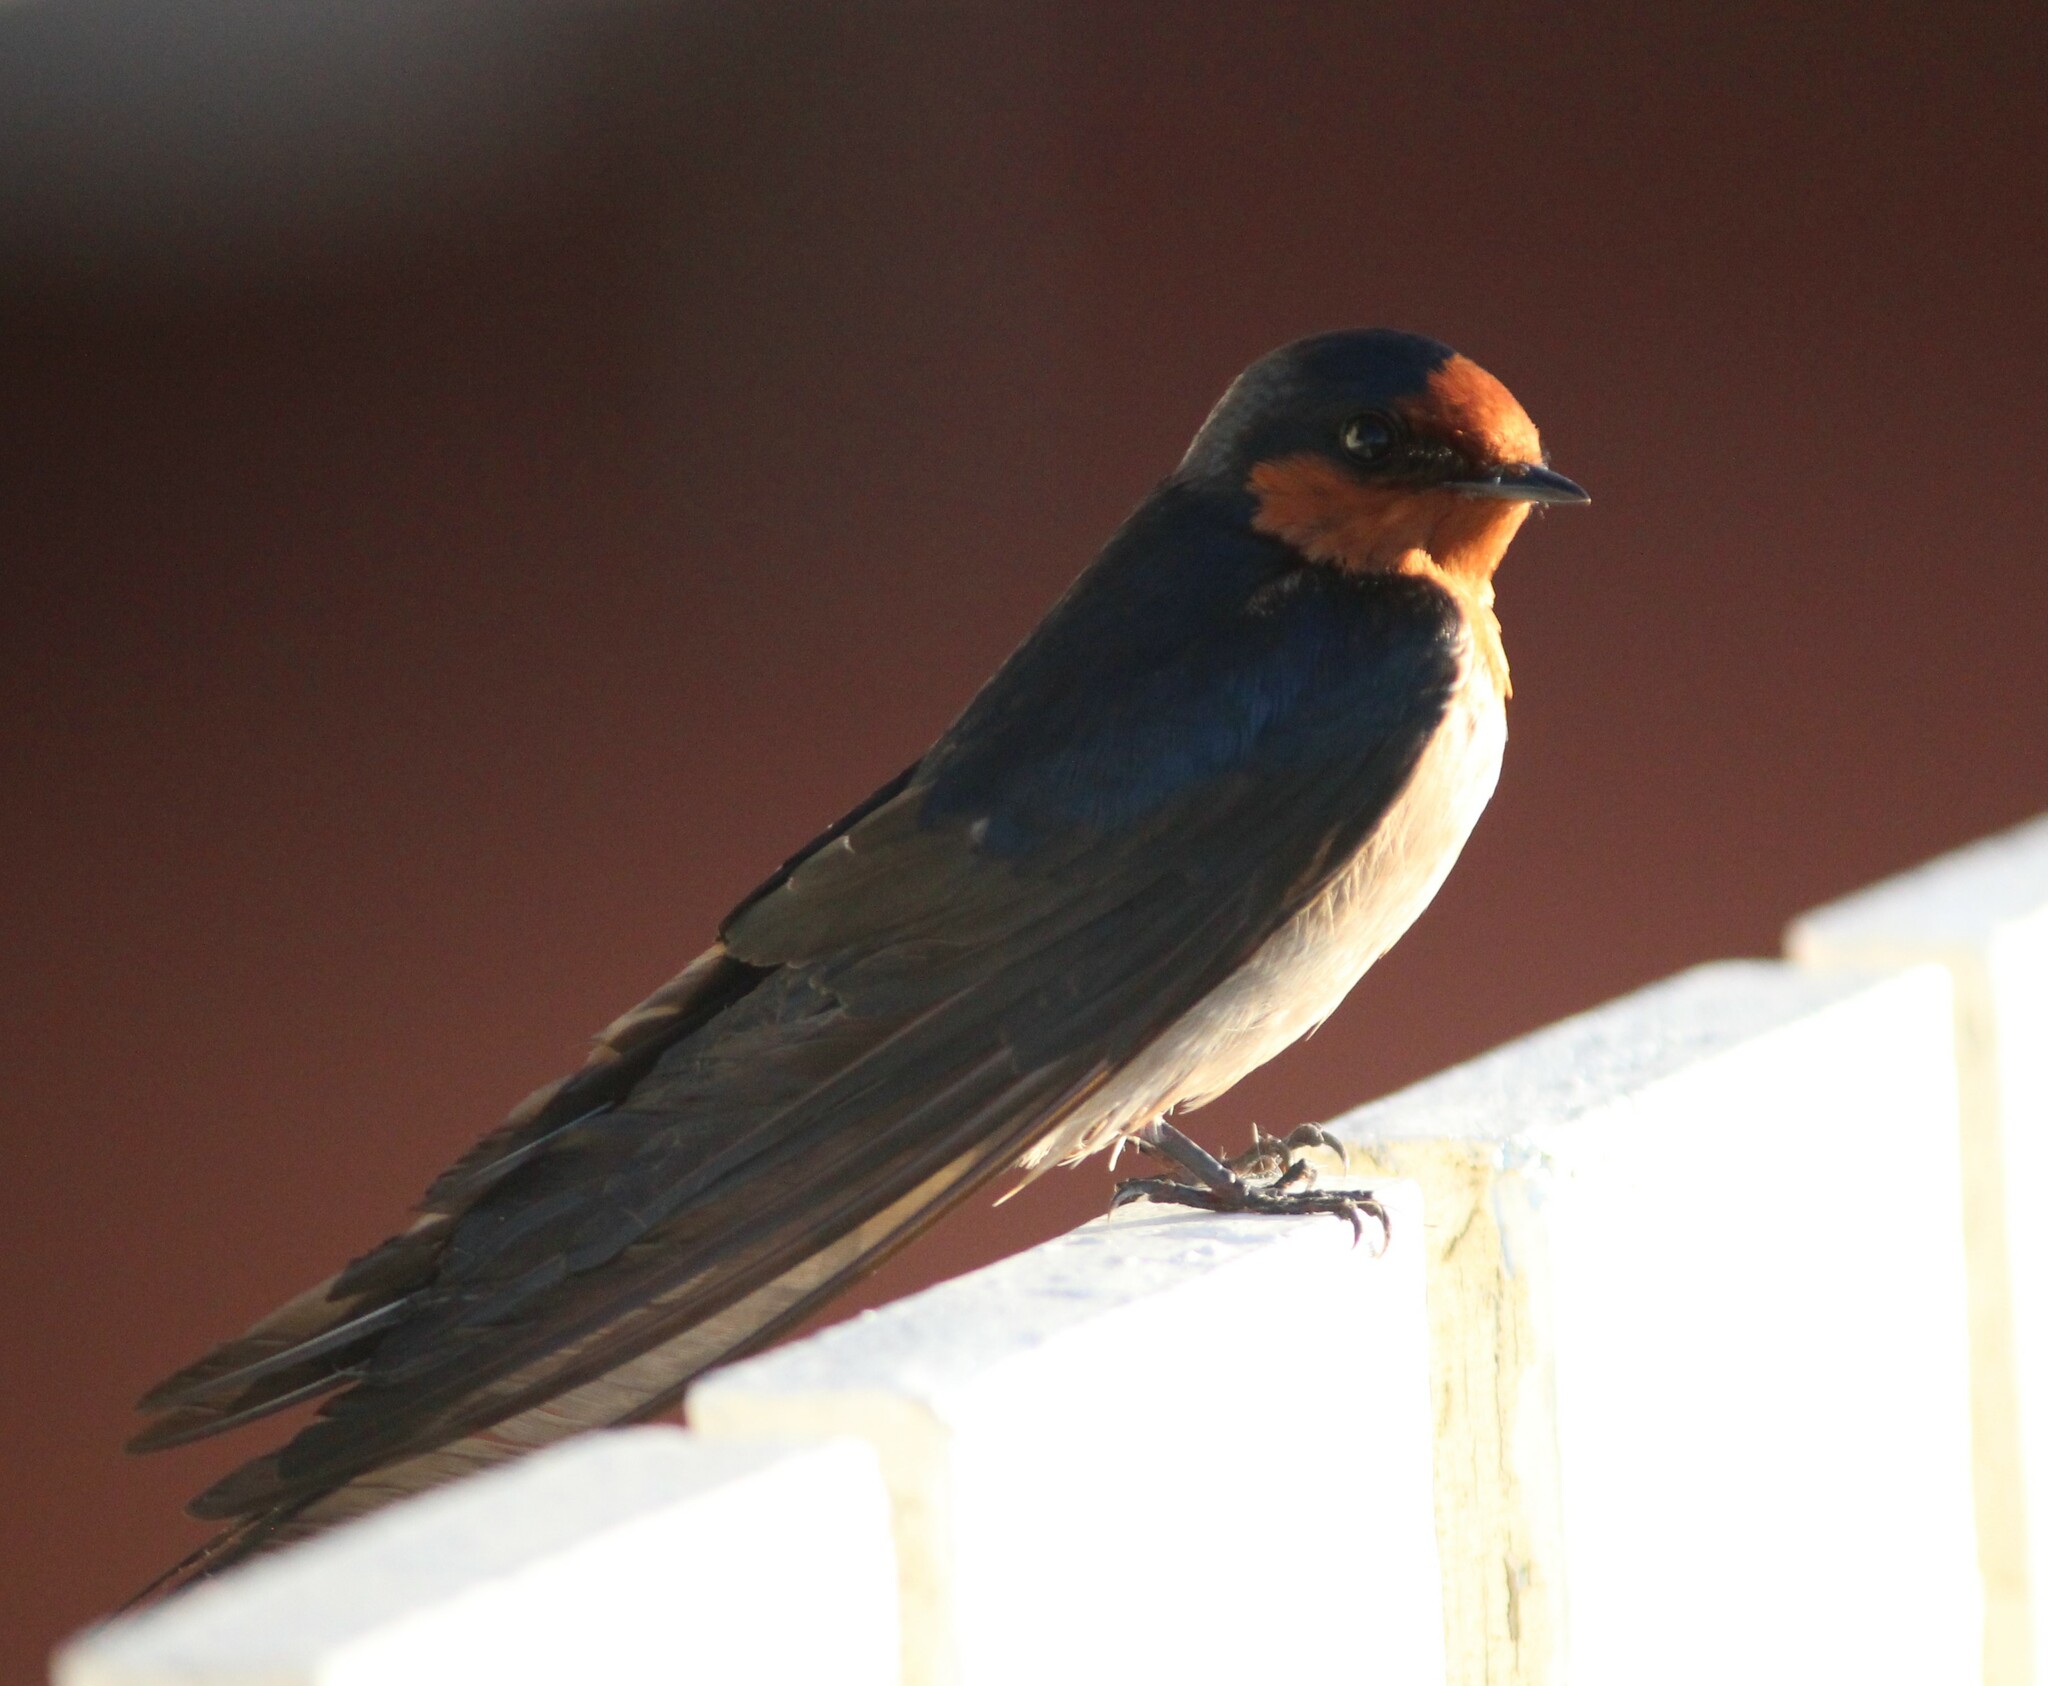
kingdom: Animalia
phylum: Chordata
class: Aves
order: Passeriformes
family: Hirundinidae
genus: Hirundo
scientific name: Hirundo neoxena
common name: Welcome swallow
